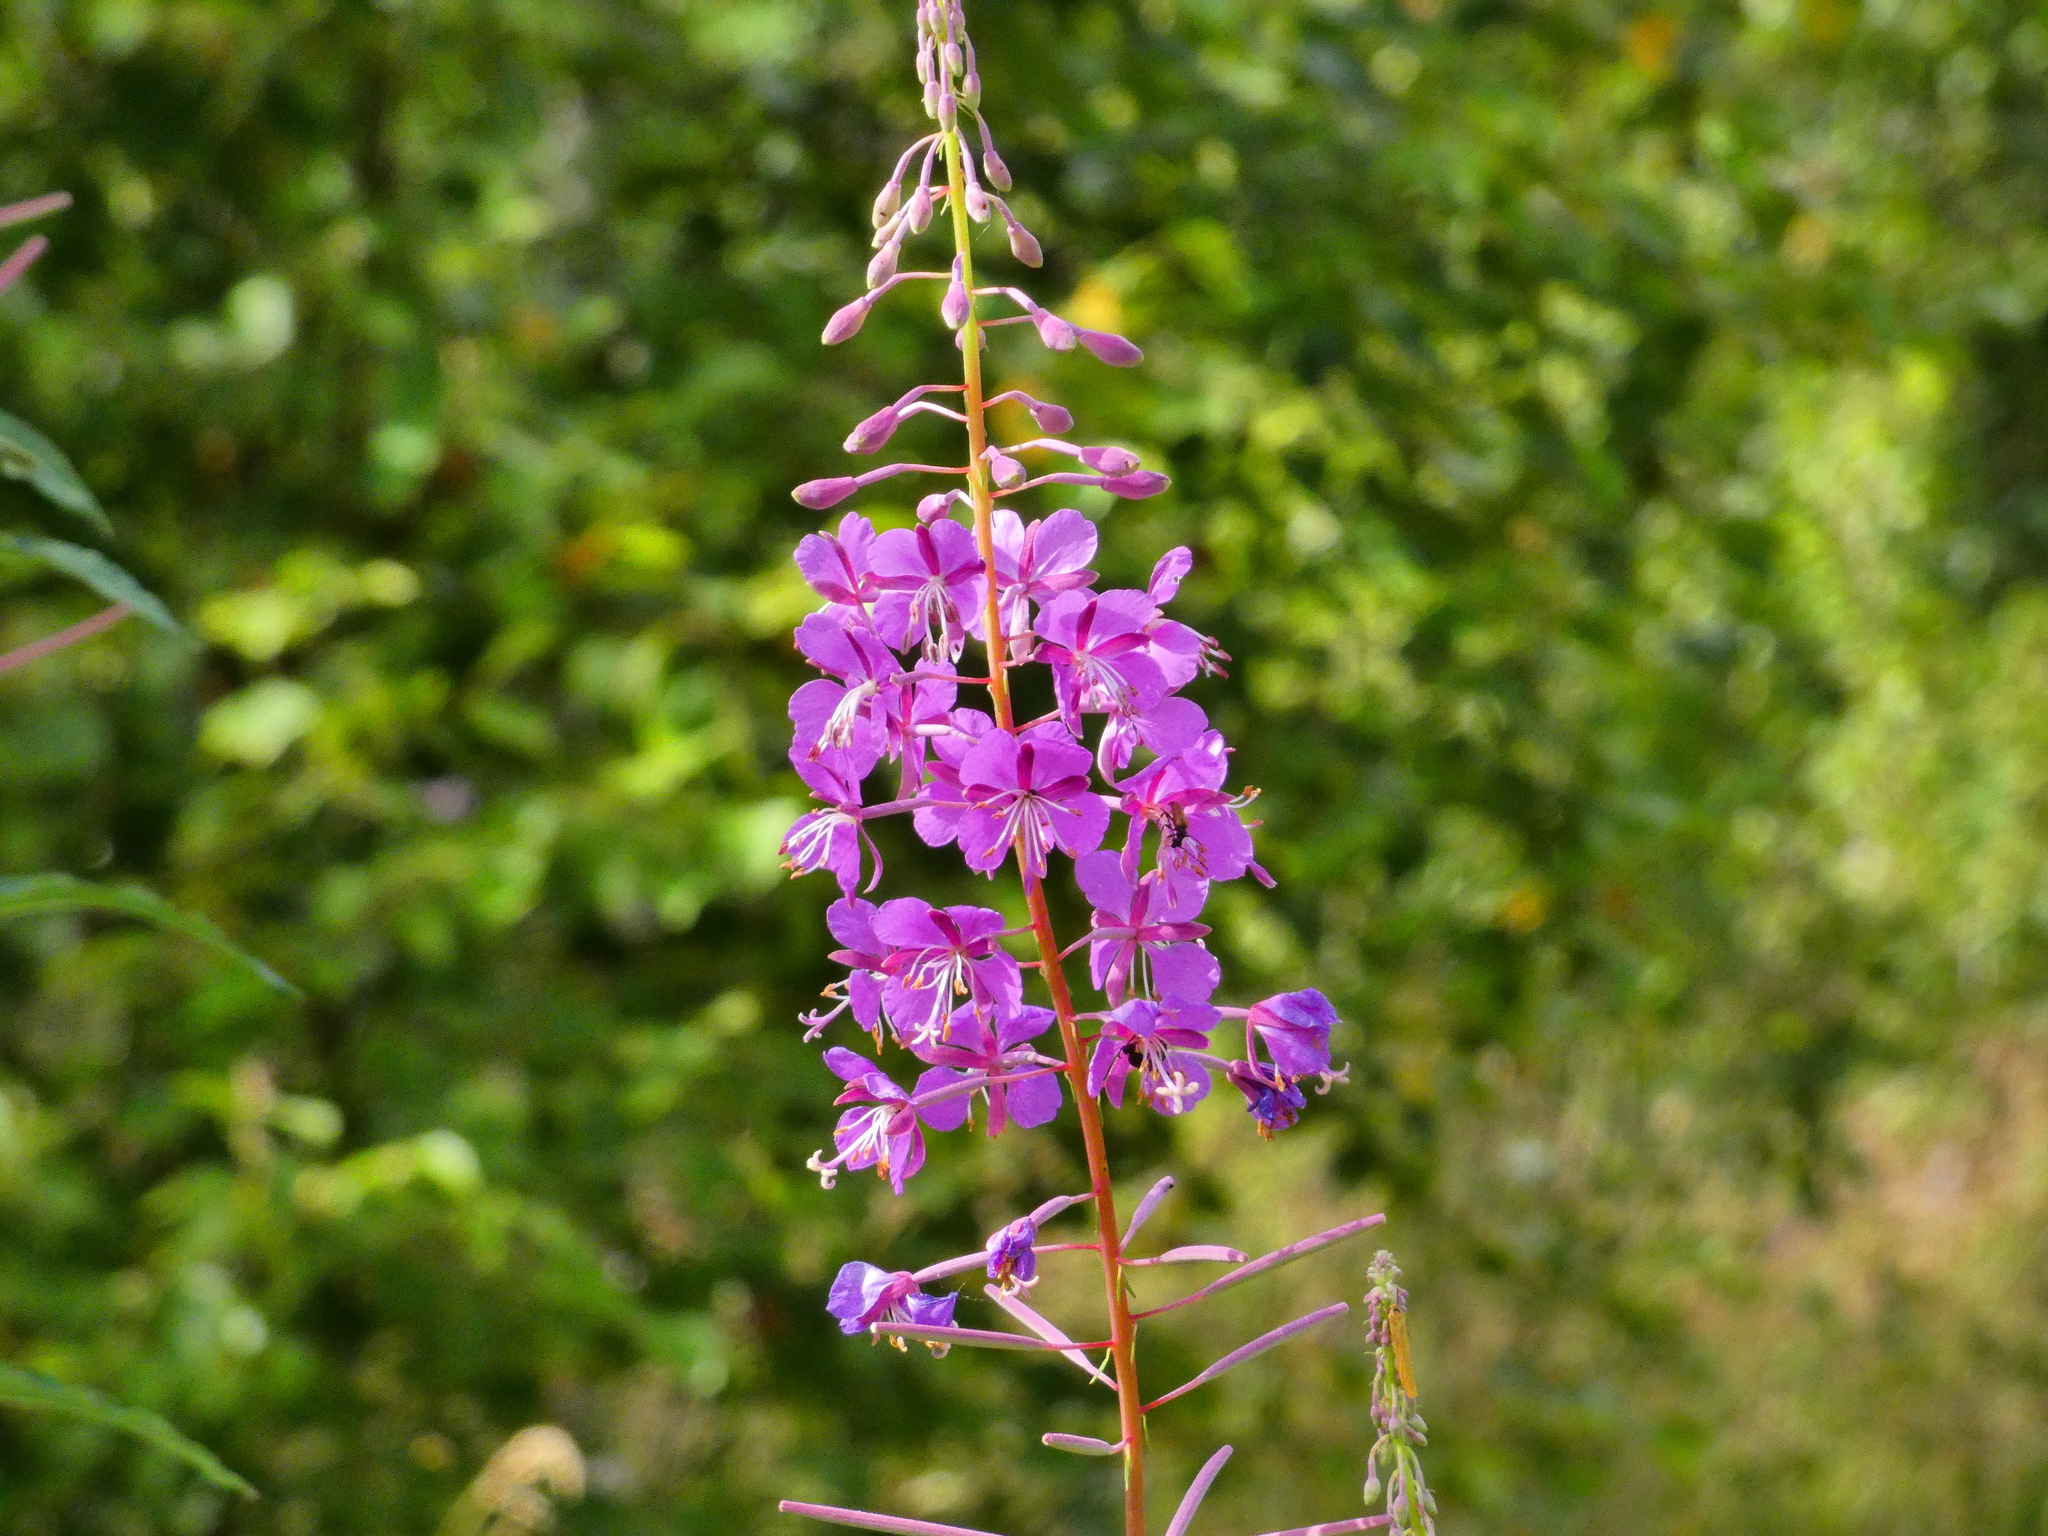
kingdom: Plantae
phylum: Tracheophyta
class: Magnoliopsida
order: Myrtales
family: Onagraceae
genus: Chamaenerion
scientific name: Chamaenerion angustifolium
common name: Fireweed
